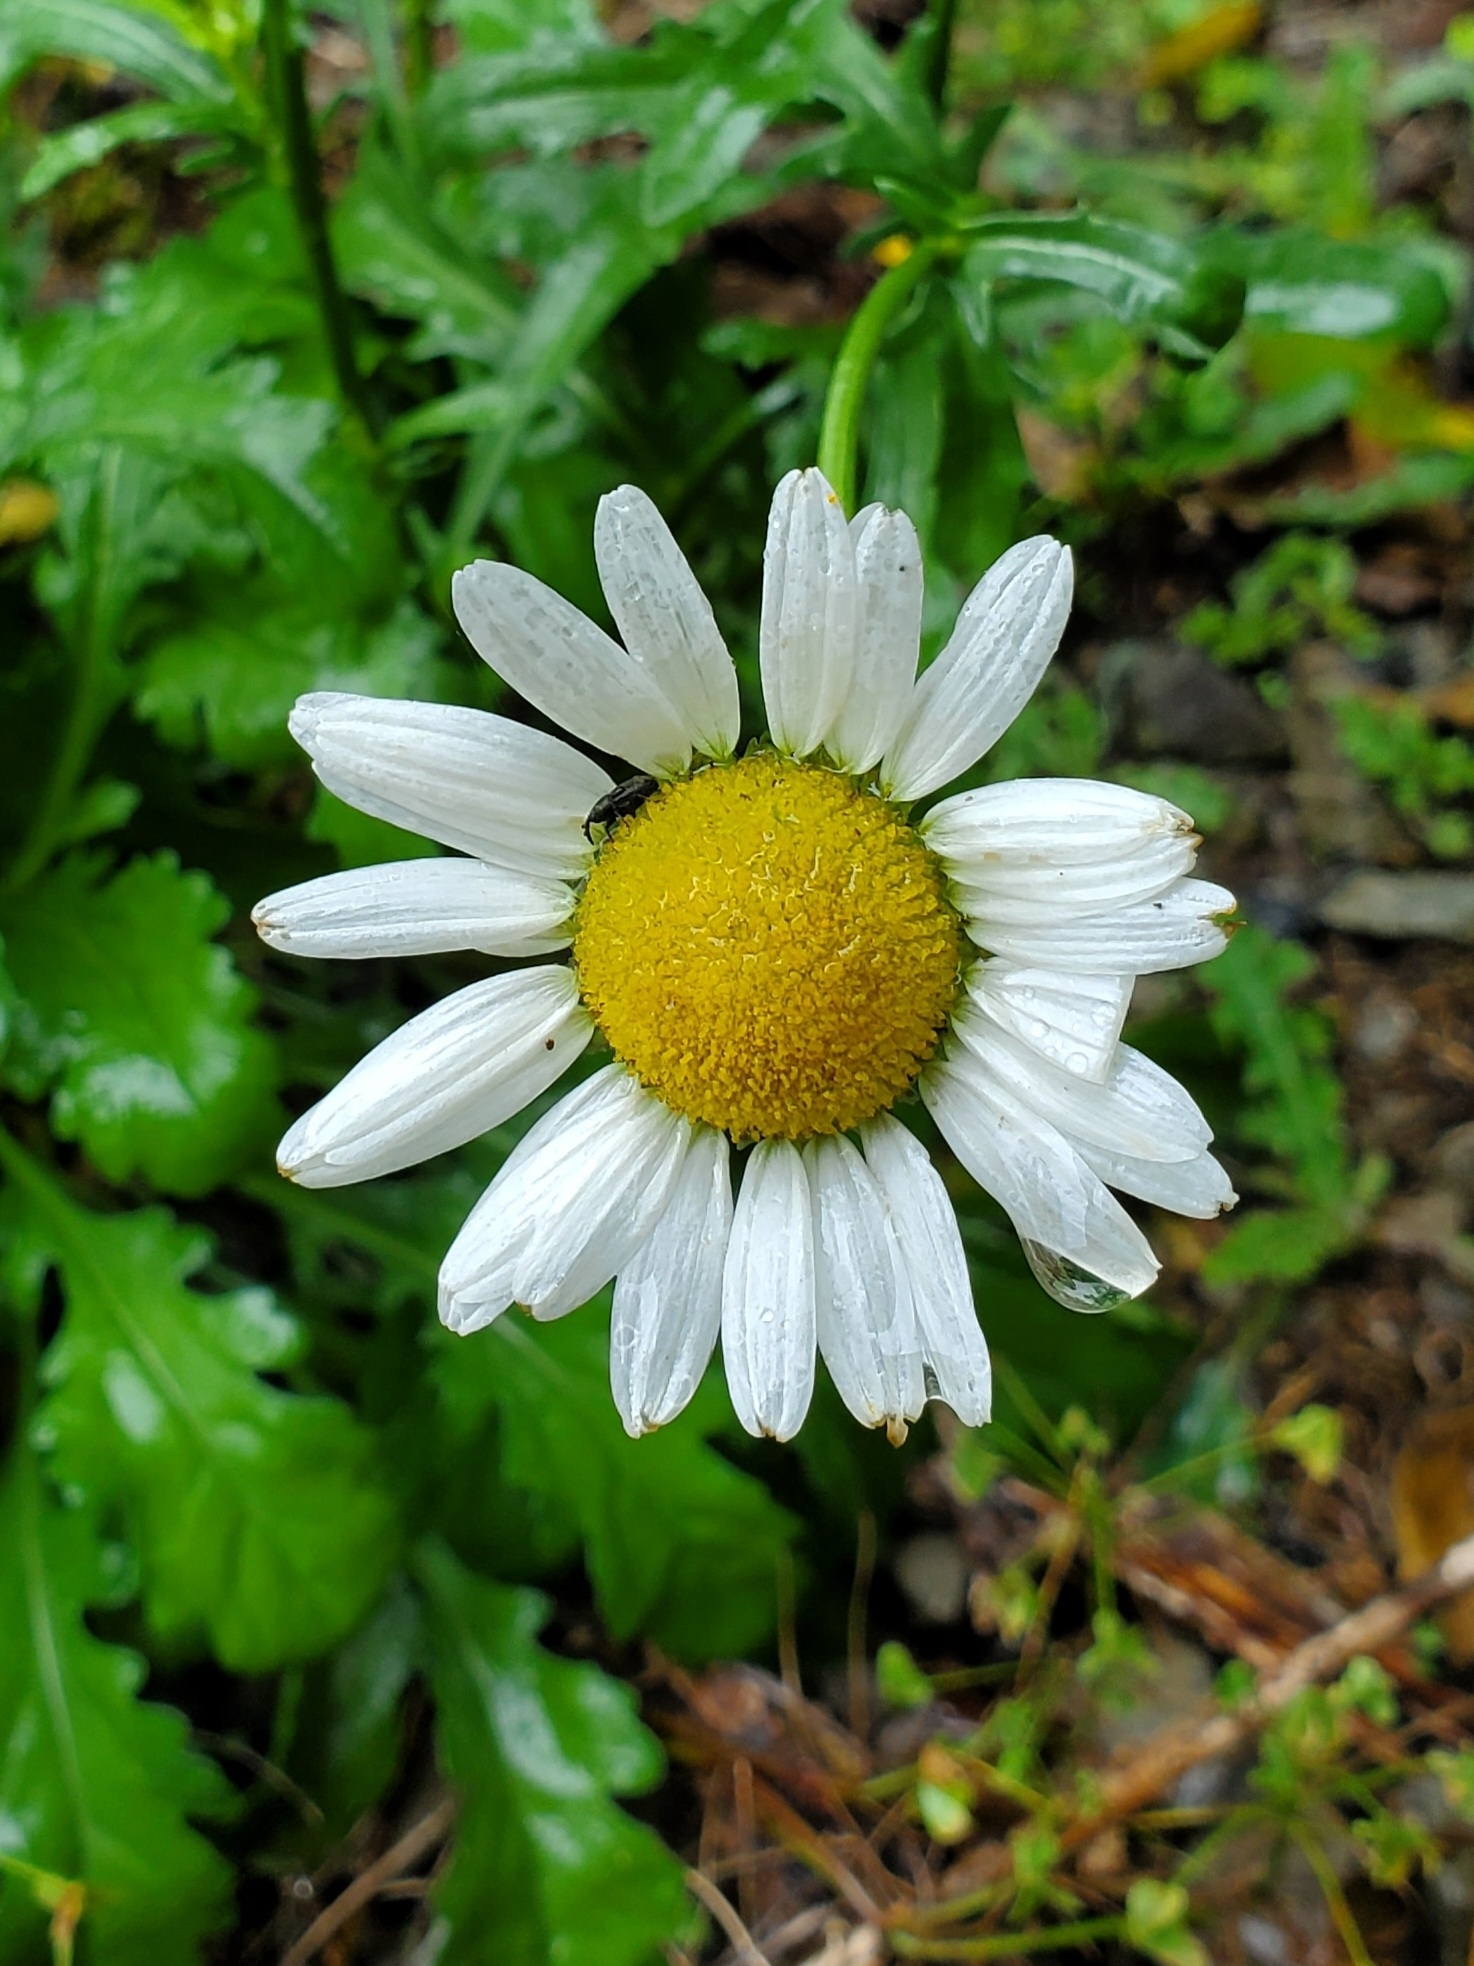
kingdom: Plantae
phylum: Tracheophyta
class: Magnoliopsida
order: Asterales
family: Asteraceae
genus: Leucanthemum
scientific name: Leucanthemum vulgare
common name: Oxeye daisy
